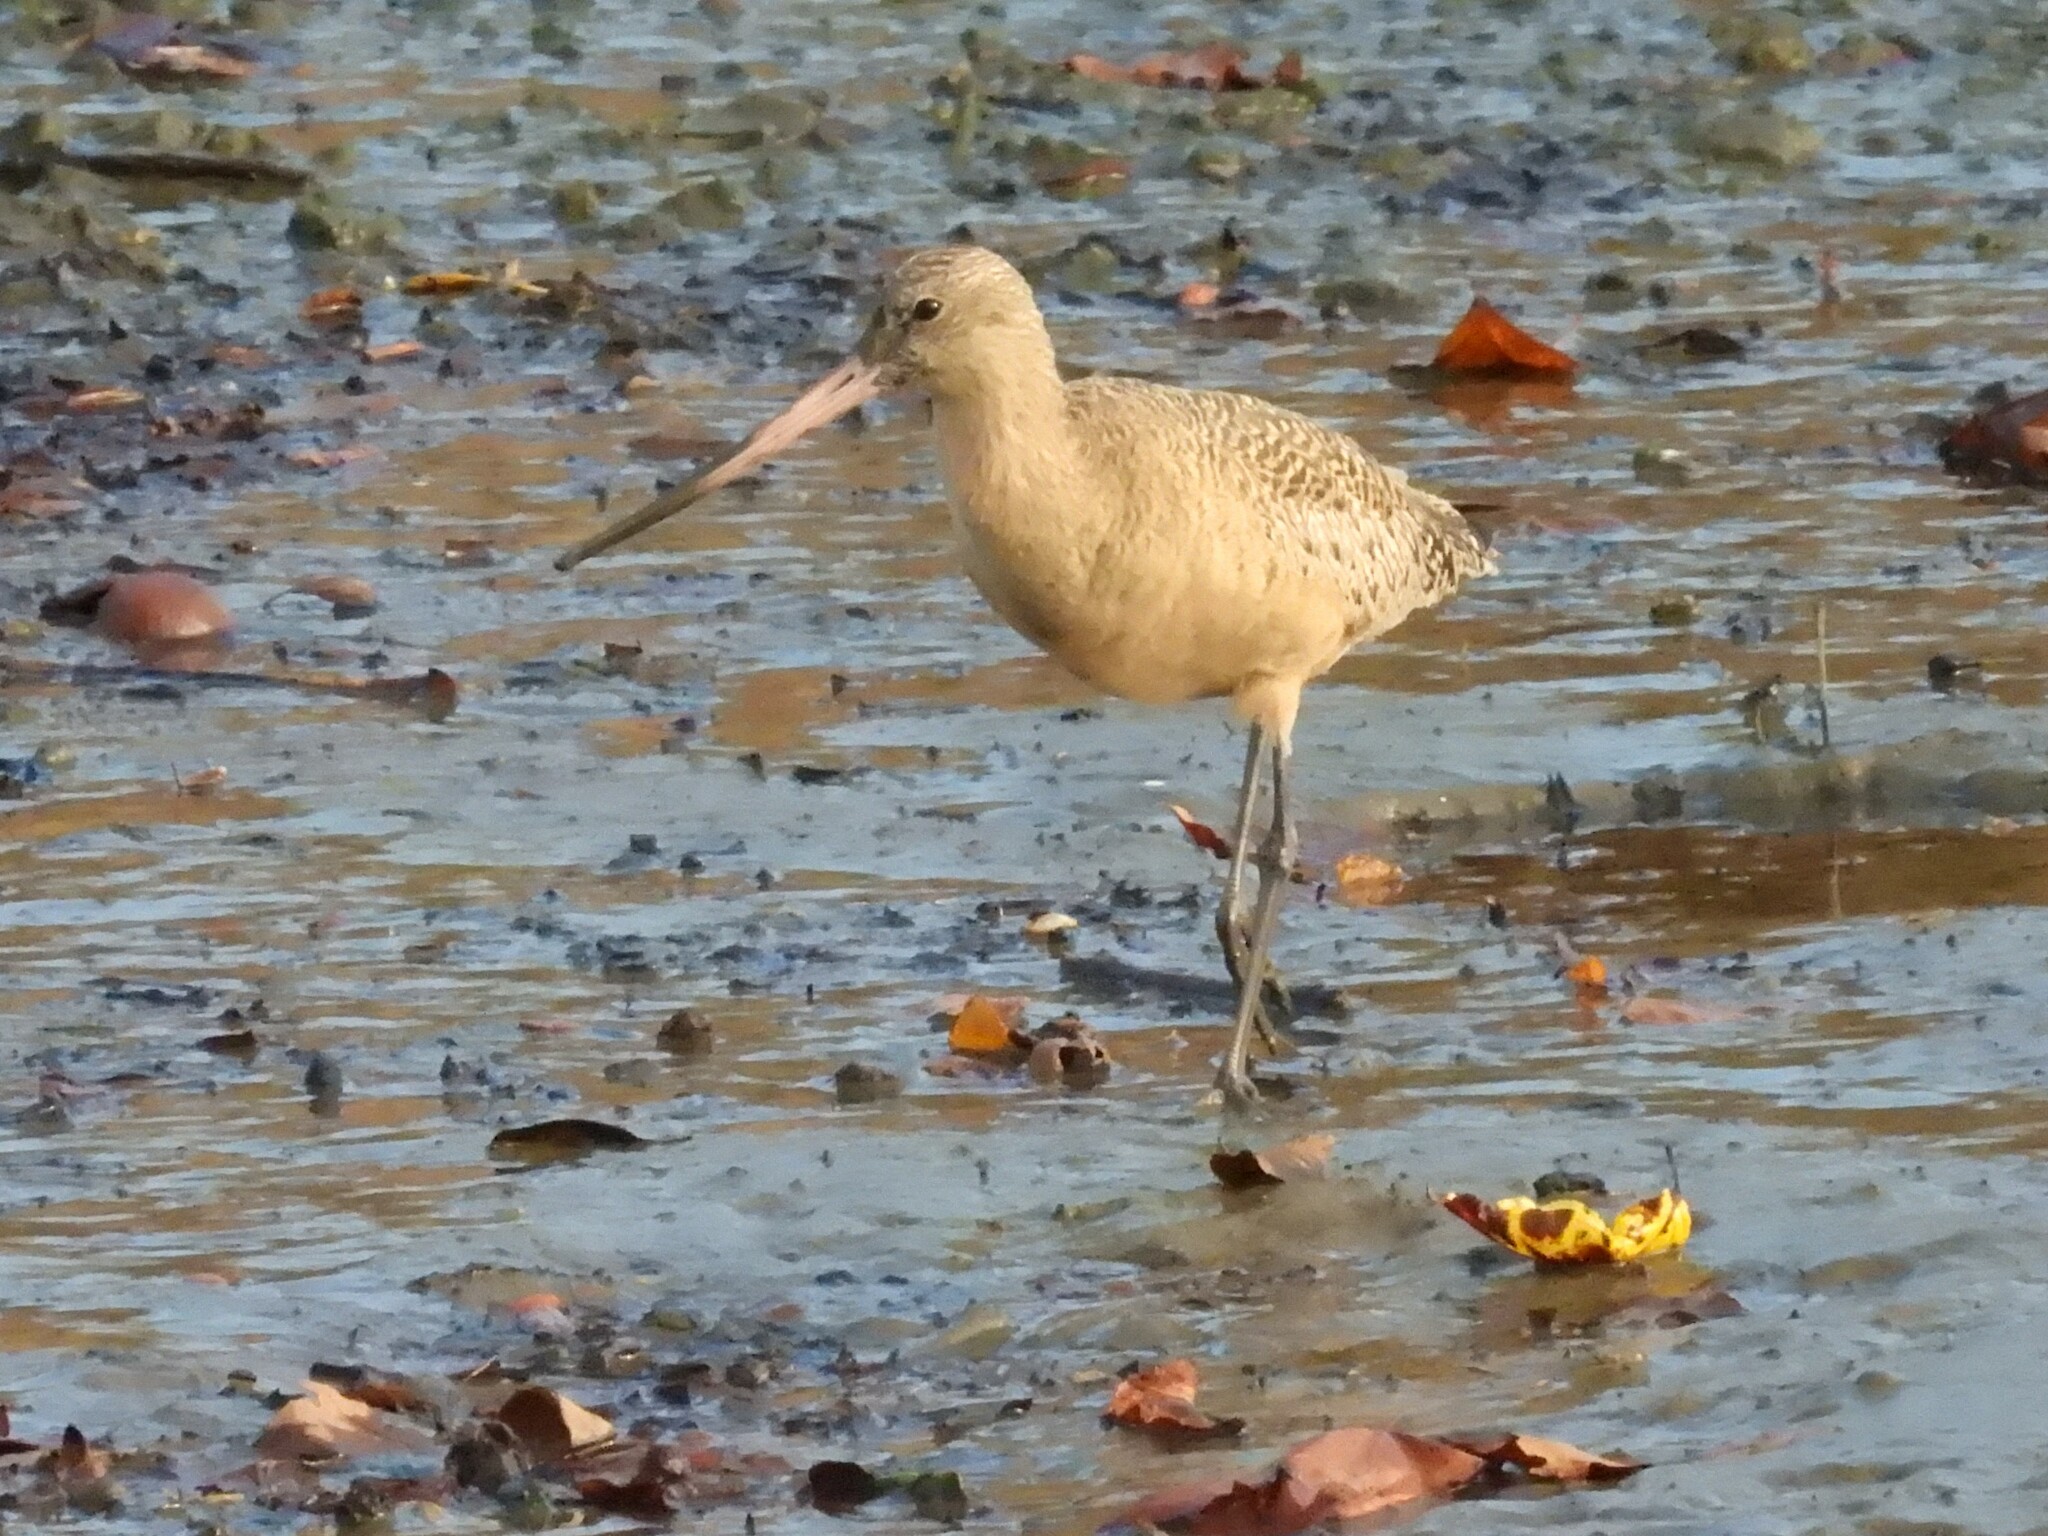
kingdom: Animalia
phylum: Chordata
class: Aves
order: Charadriiformes
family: Scolopacidae
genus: Limosa
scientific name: Limosa fedoa
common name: Marbled godwit
